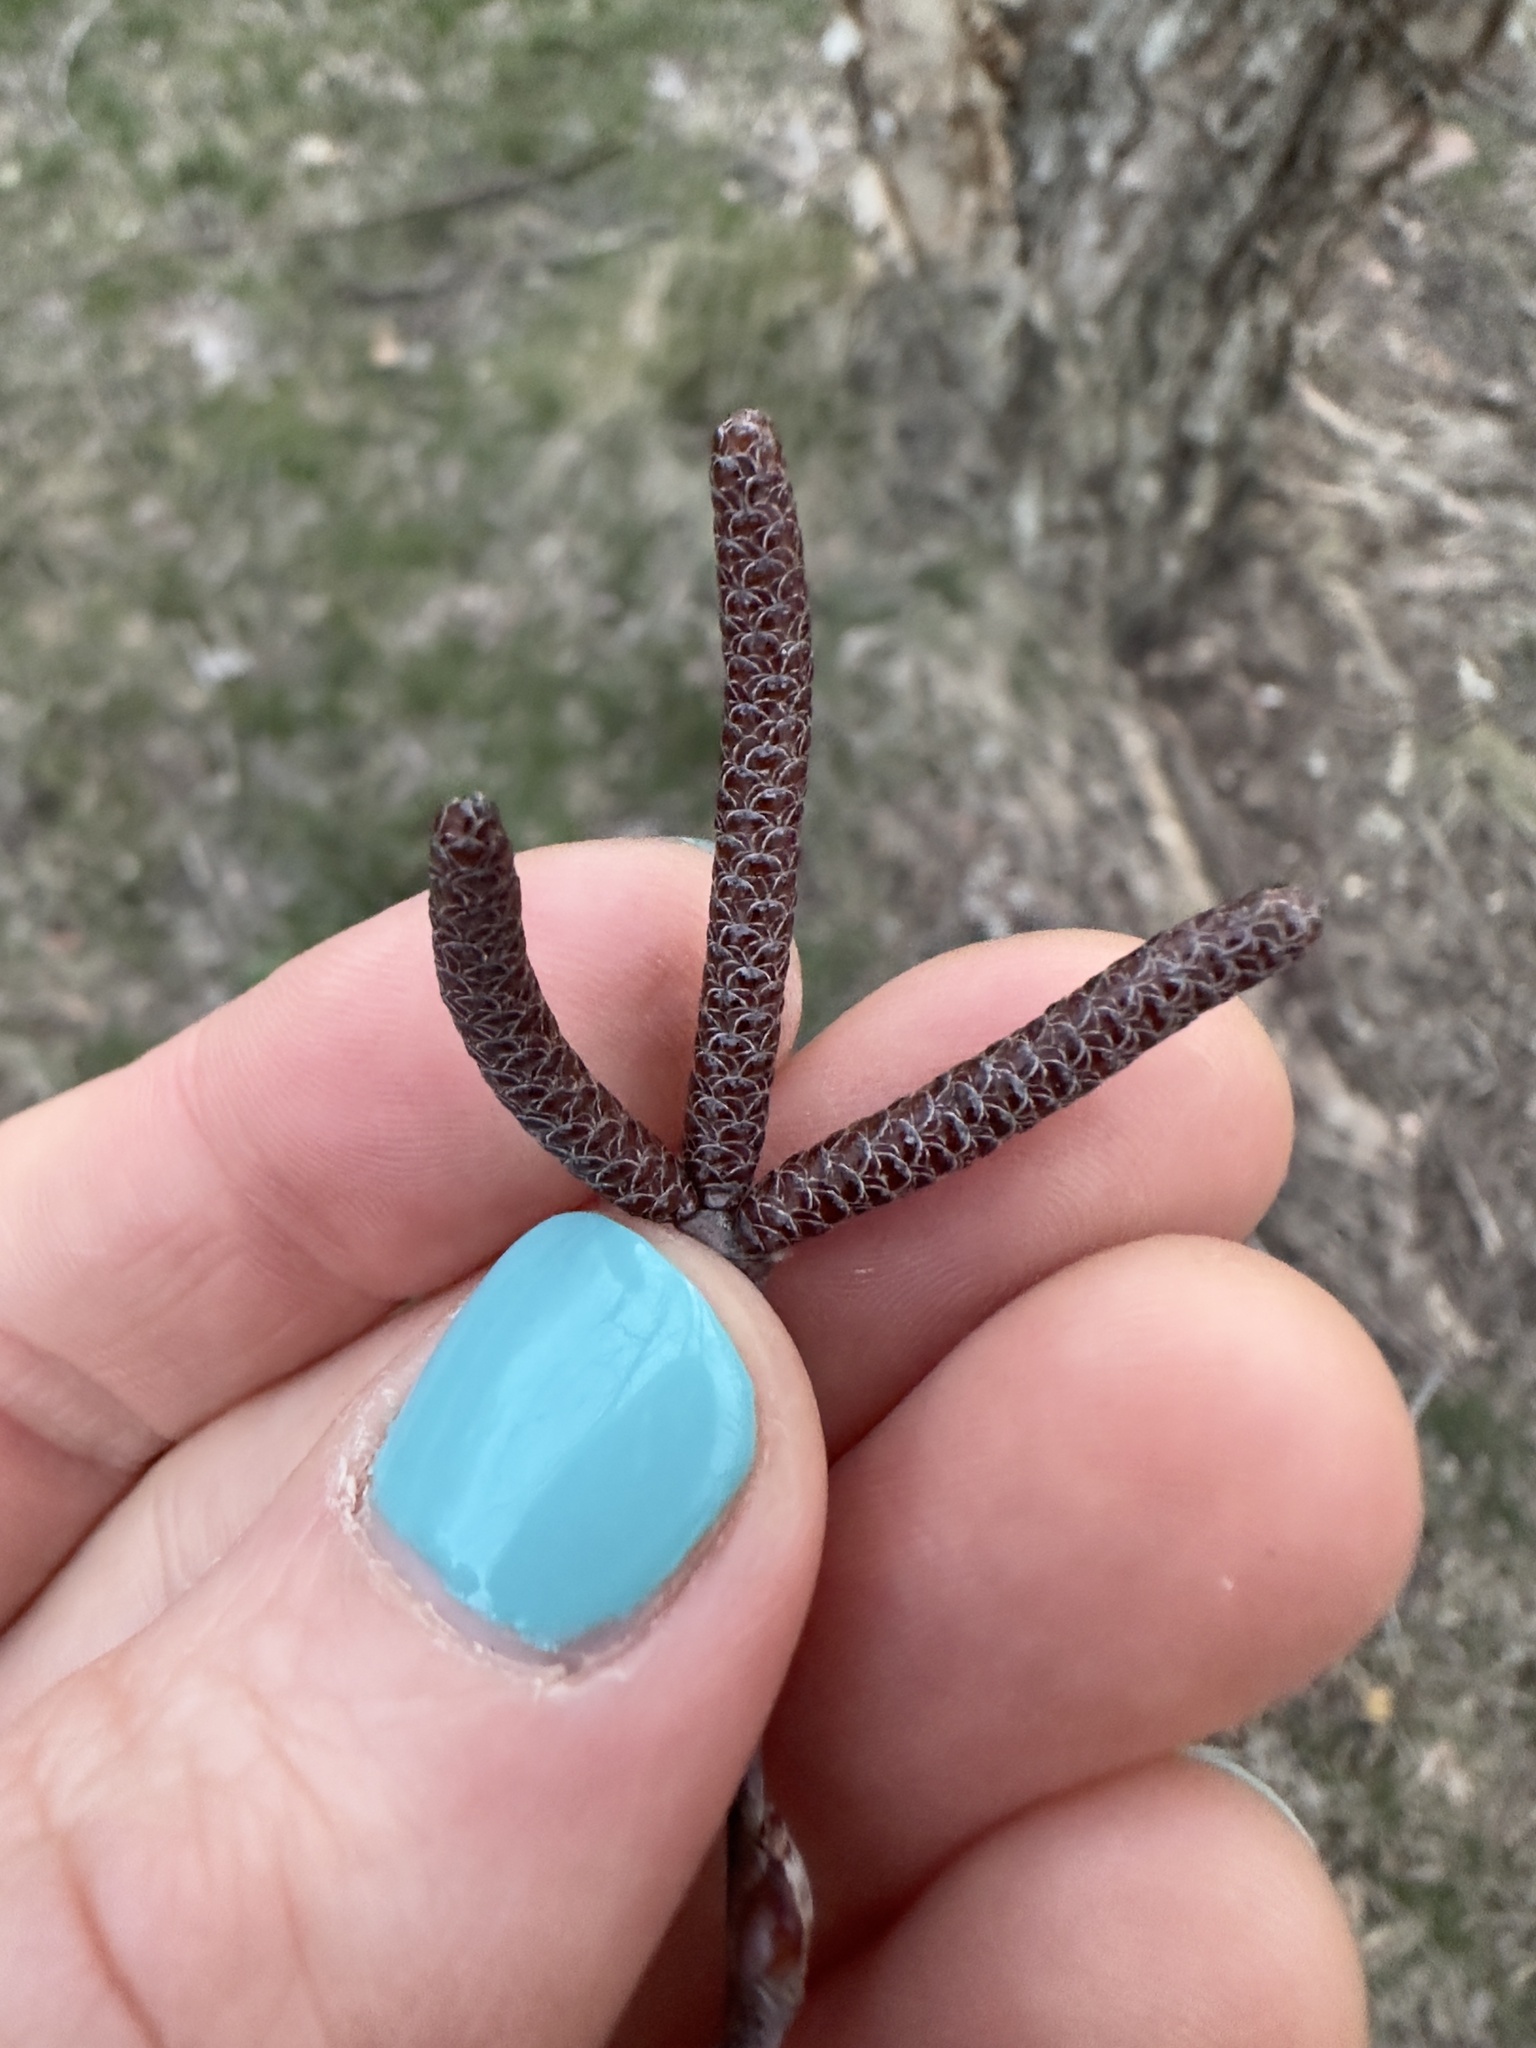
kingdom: Plantae
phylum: Tracheophyta
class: Magnoliopsida
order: Fagales
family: Betulaceae
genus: Betula
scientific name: Betula nigra
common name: Black birch
